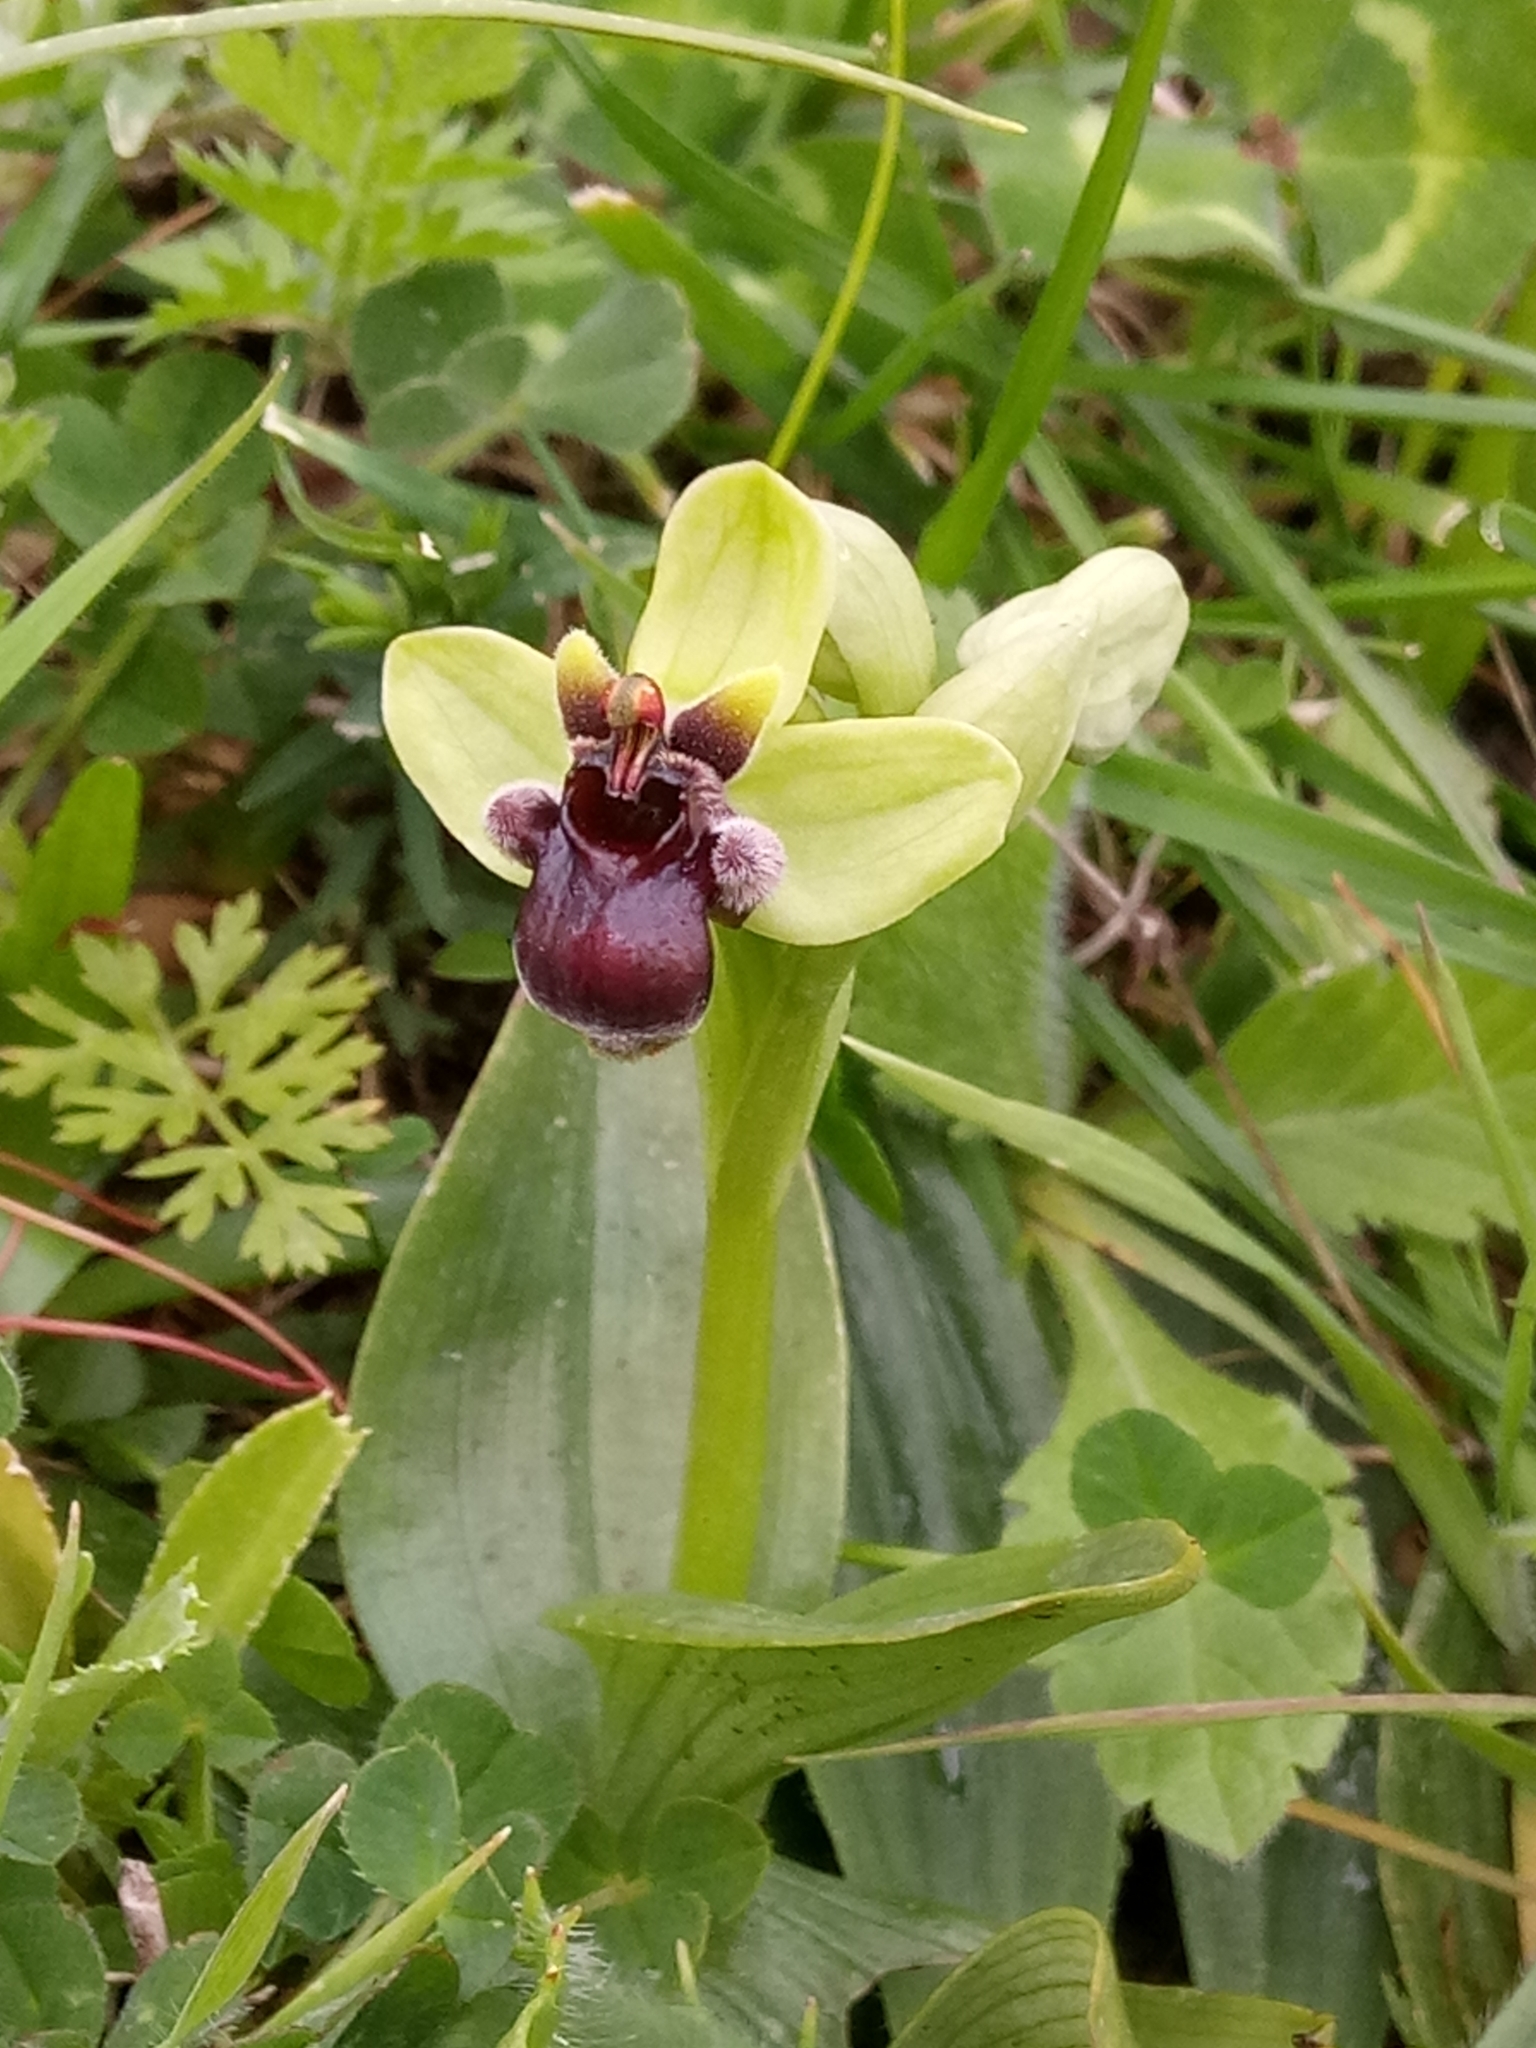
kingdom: Plantae
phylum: Tracheophyta
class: Liliopsida
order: Asparagales
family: Orchidaceae
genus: Ophrys
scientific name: Ophrys bombyliflora
